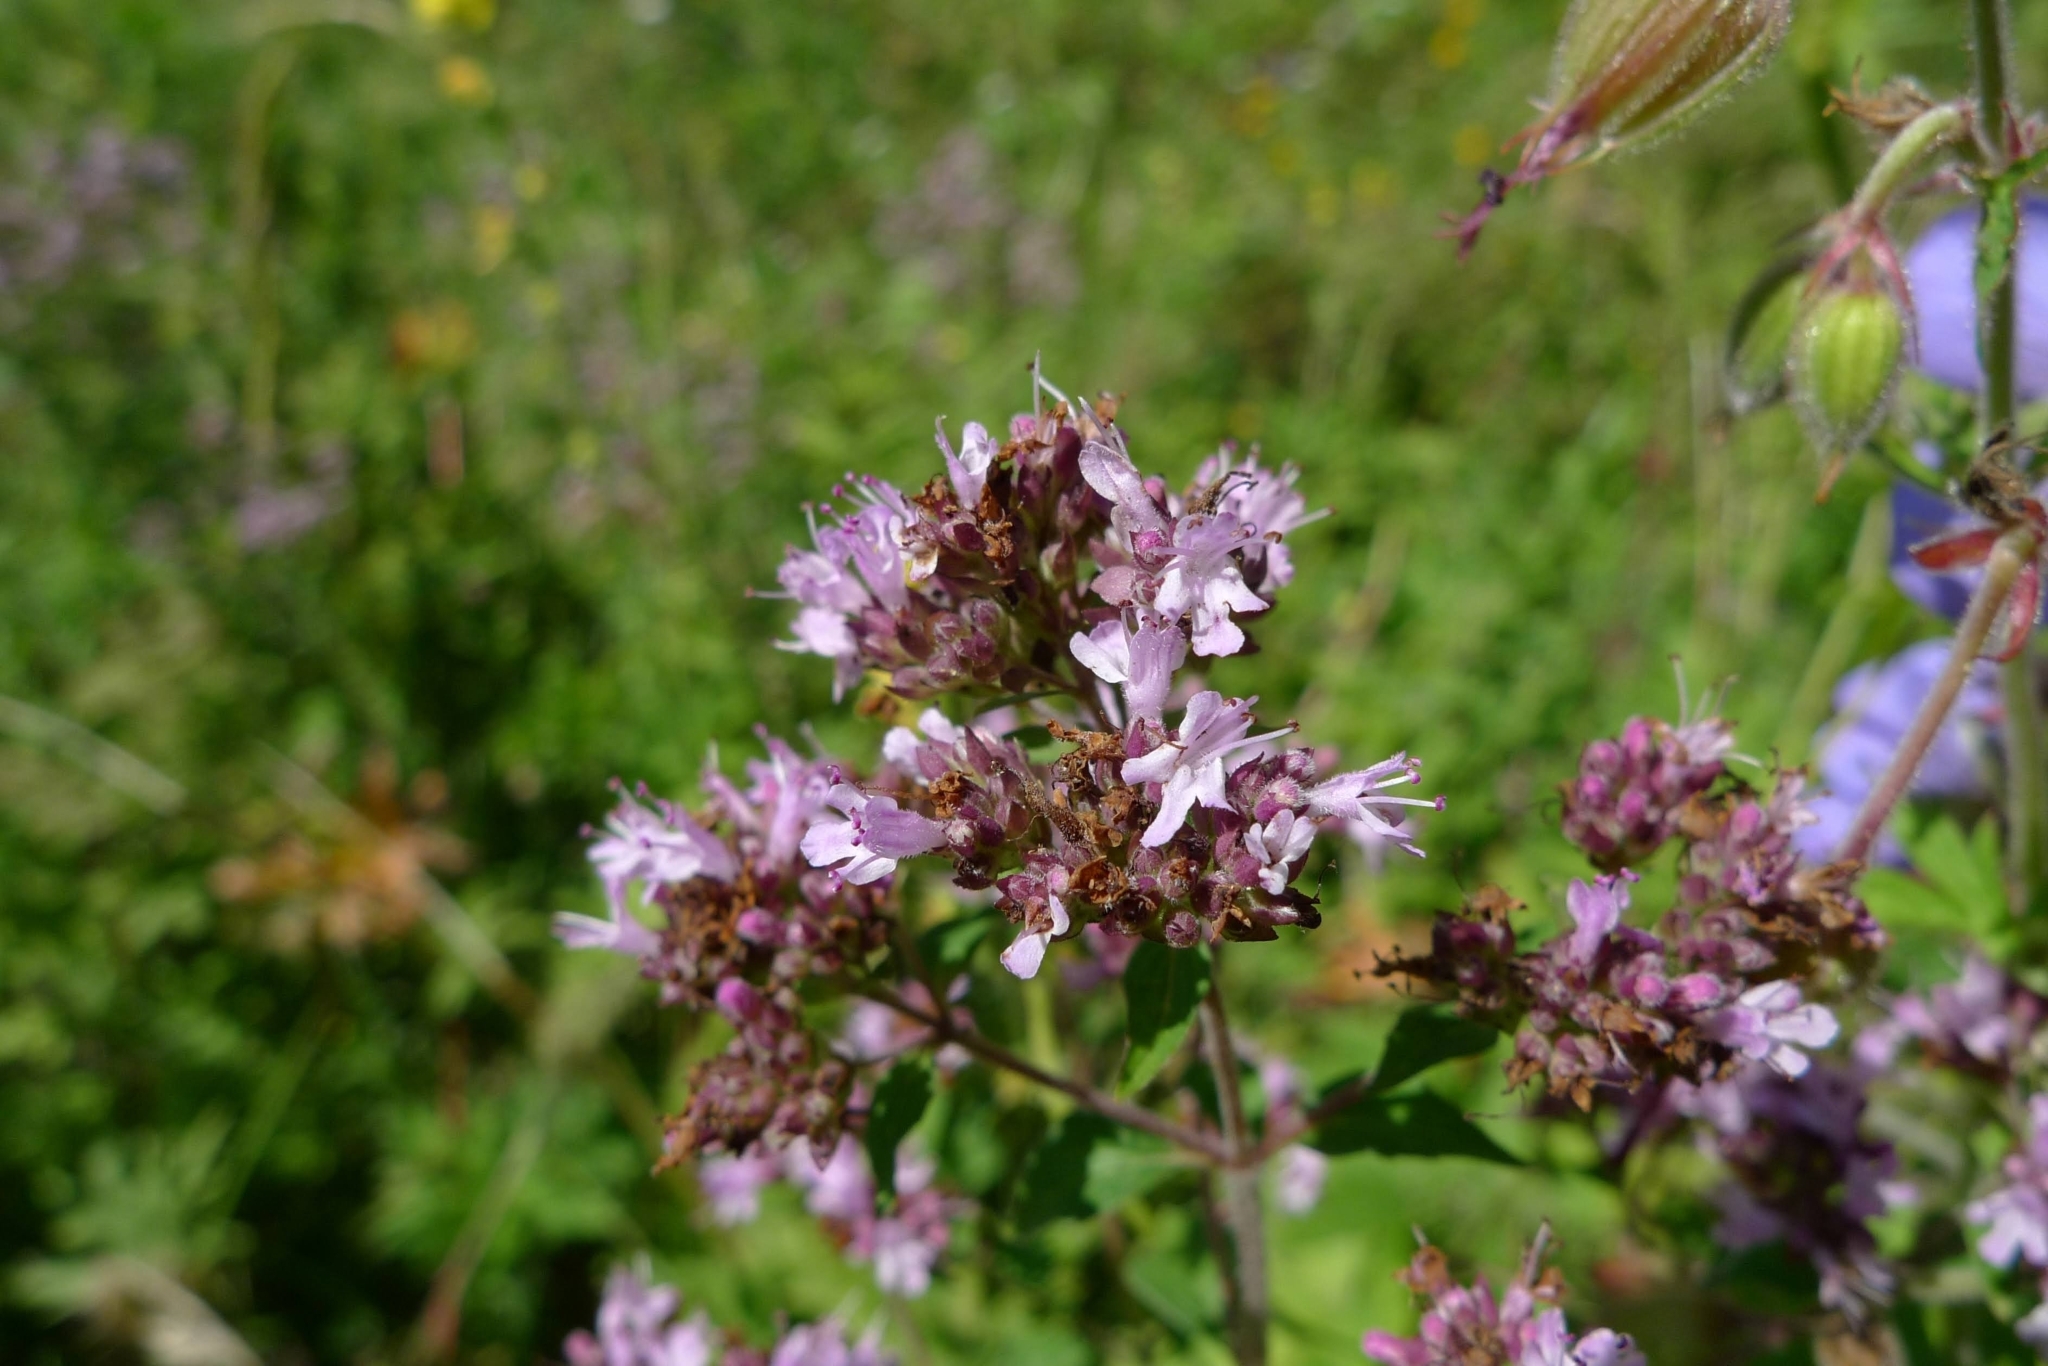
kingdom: Plantae
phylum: Tracheophyta
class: Magnoliopsida
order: Lamiales
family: Lamiaceae
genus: Origanum
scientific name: Origanum vulgare
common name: Wild marjoram
